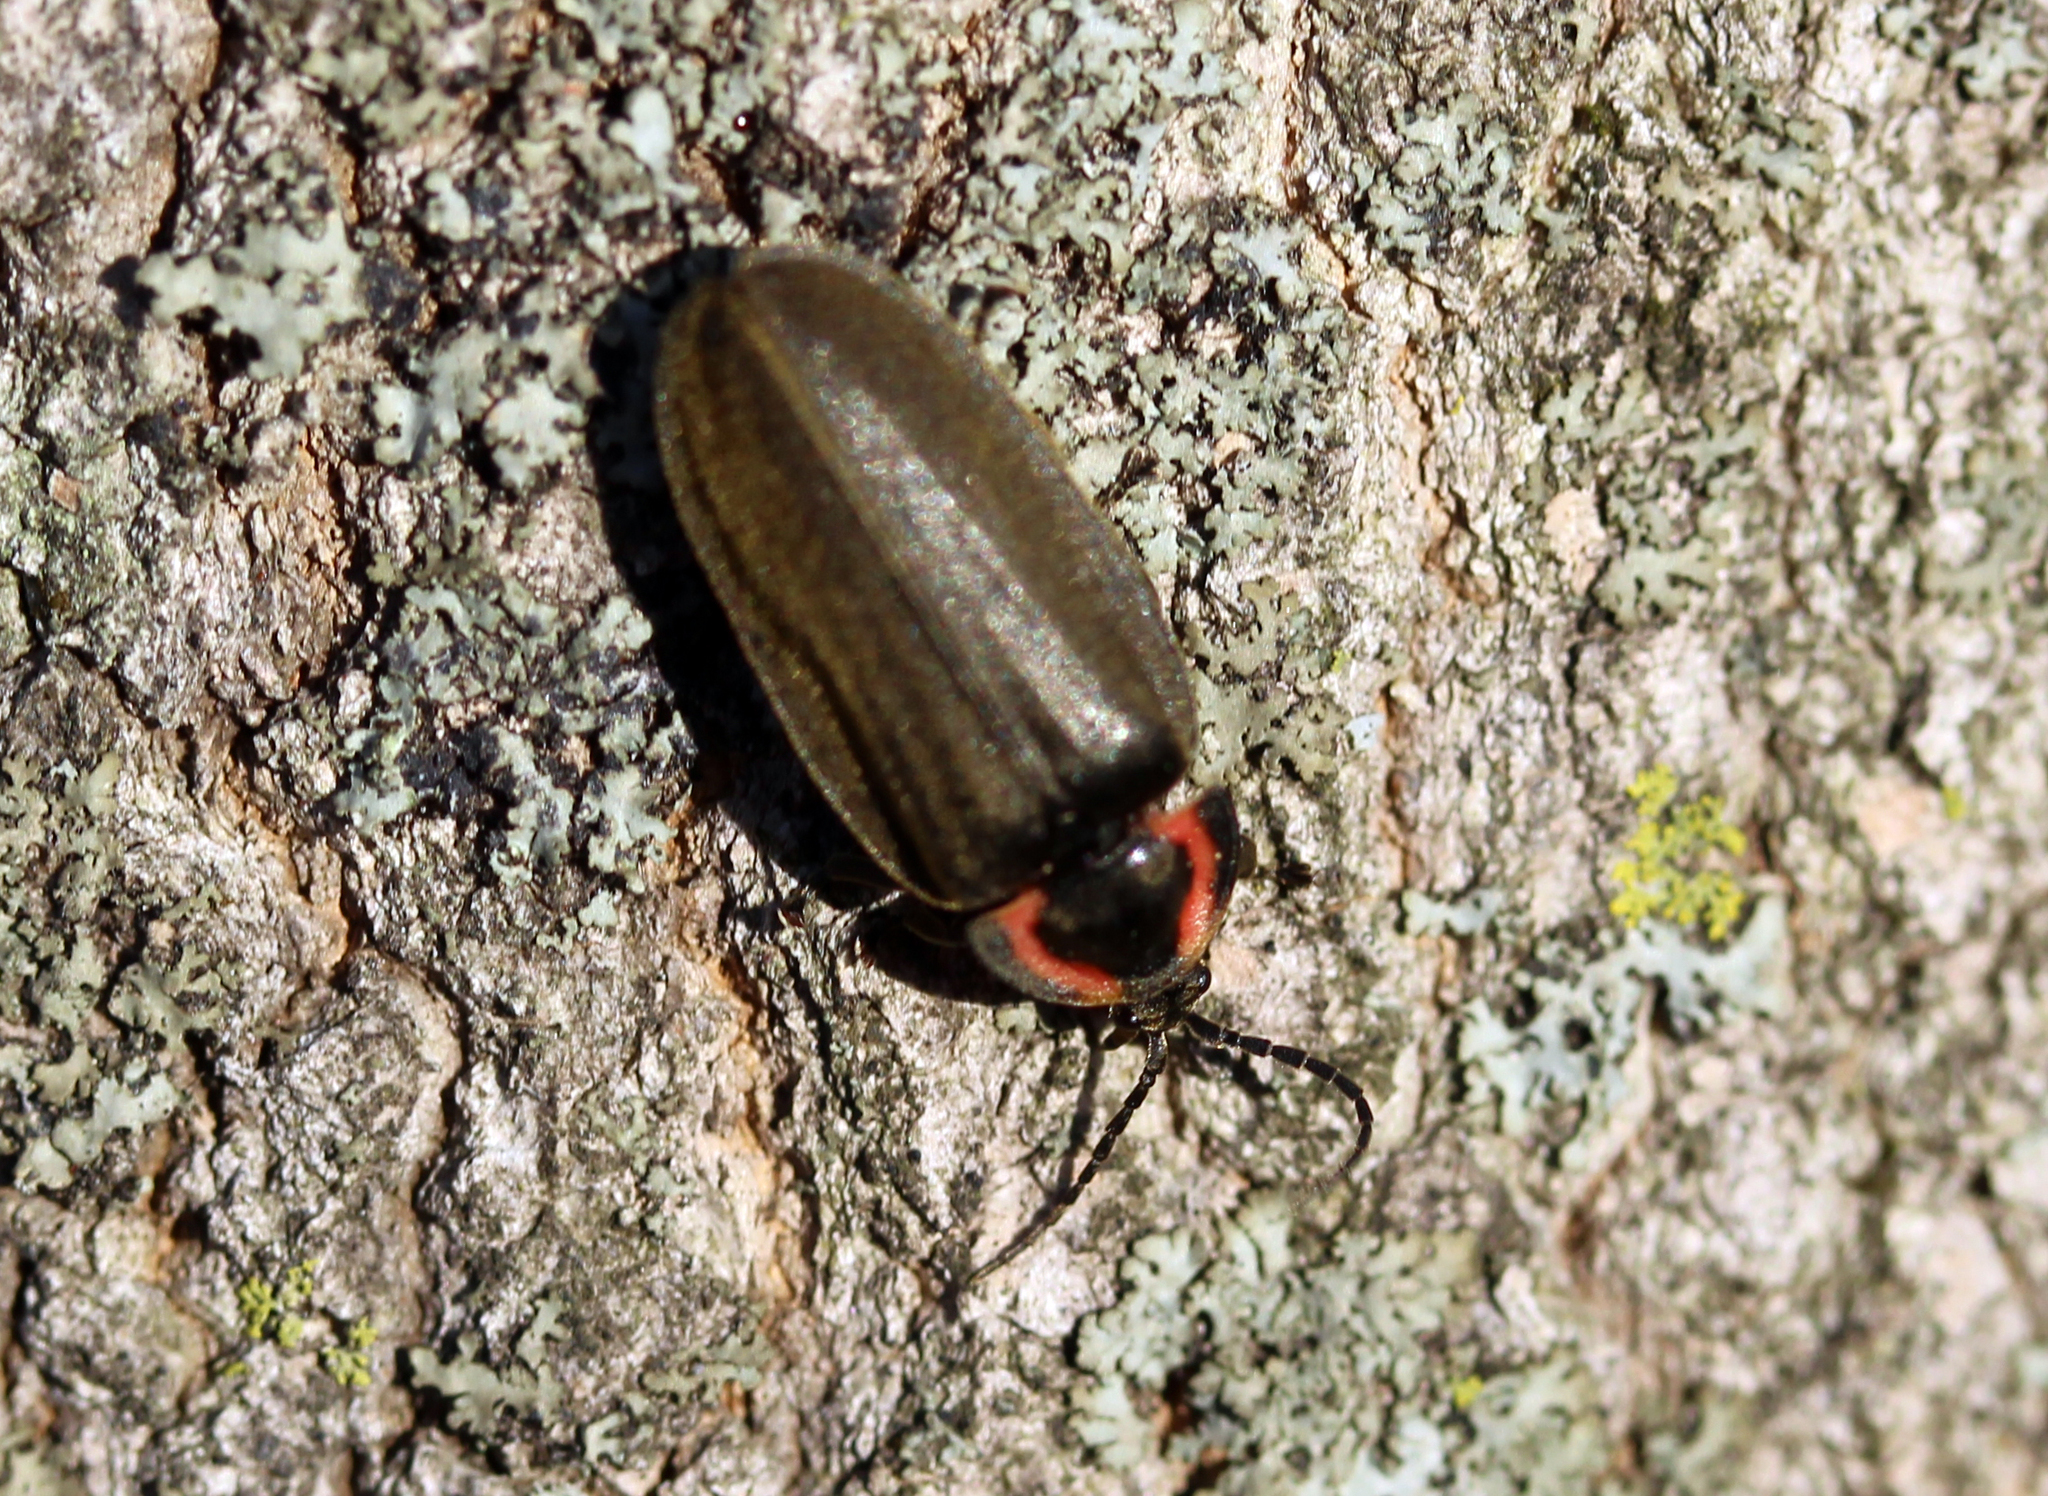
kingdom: Animalia
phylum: Arthropoda
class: Insecta
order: Coleoptera
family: Lampyridae
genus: Photinus
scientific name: Photinus corrusca
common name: Winter firefly
